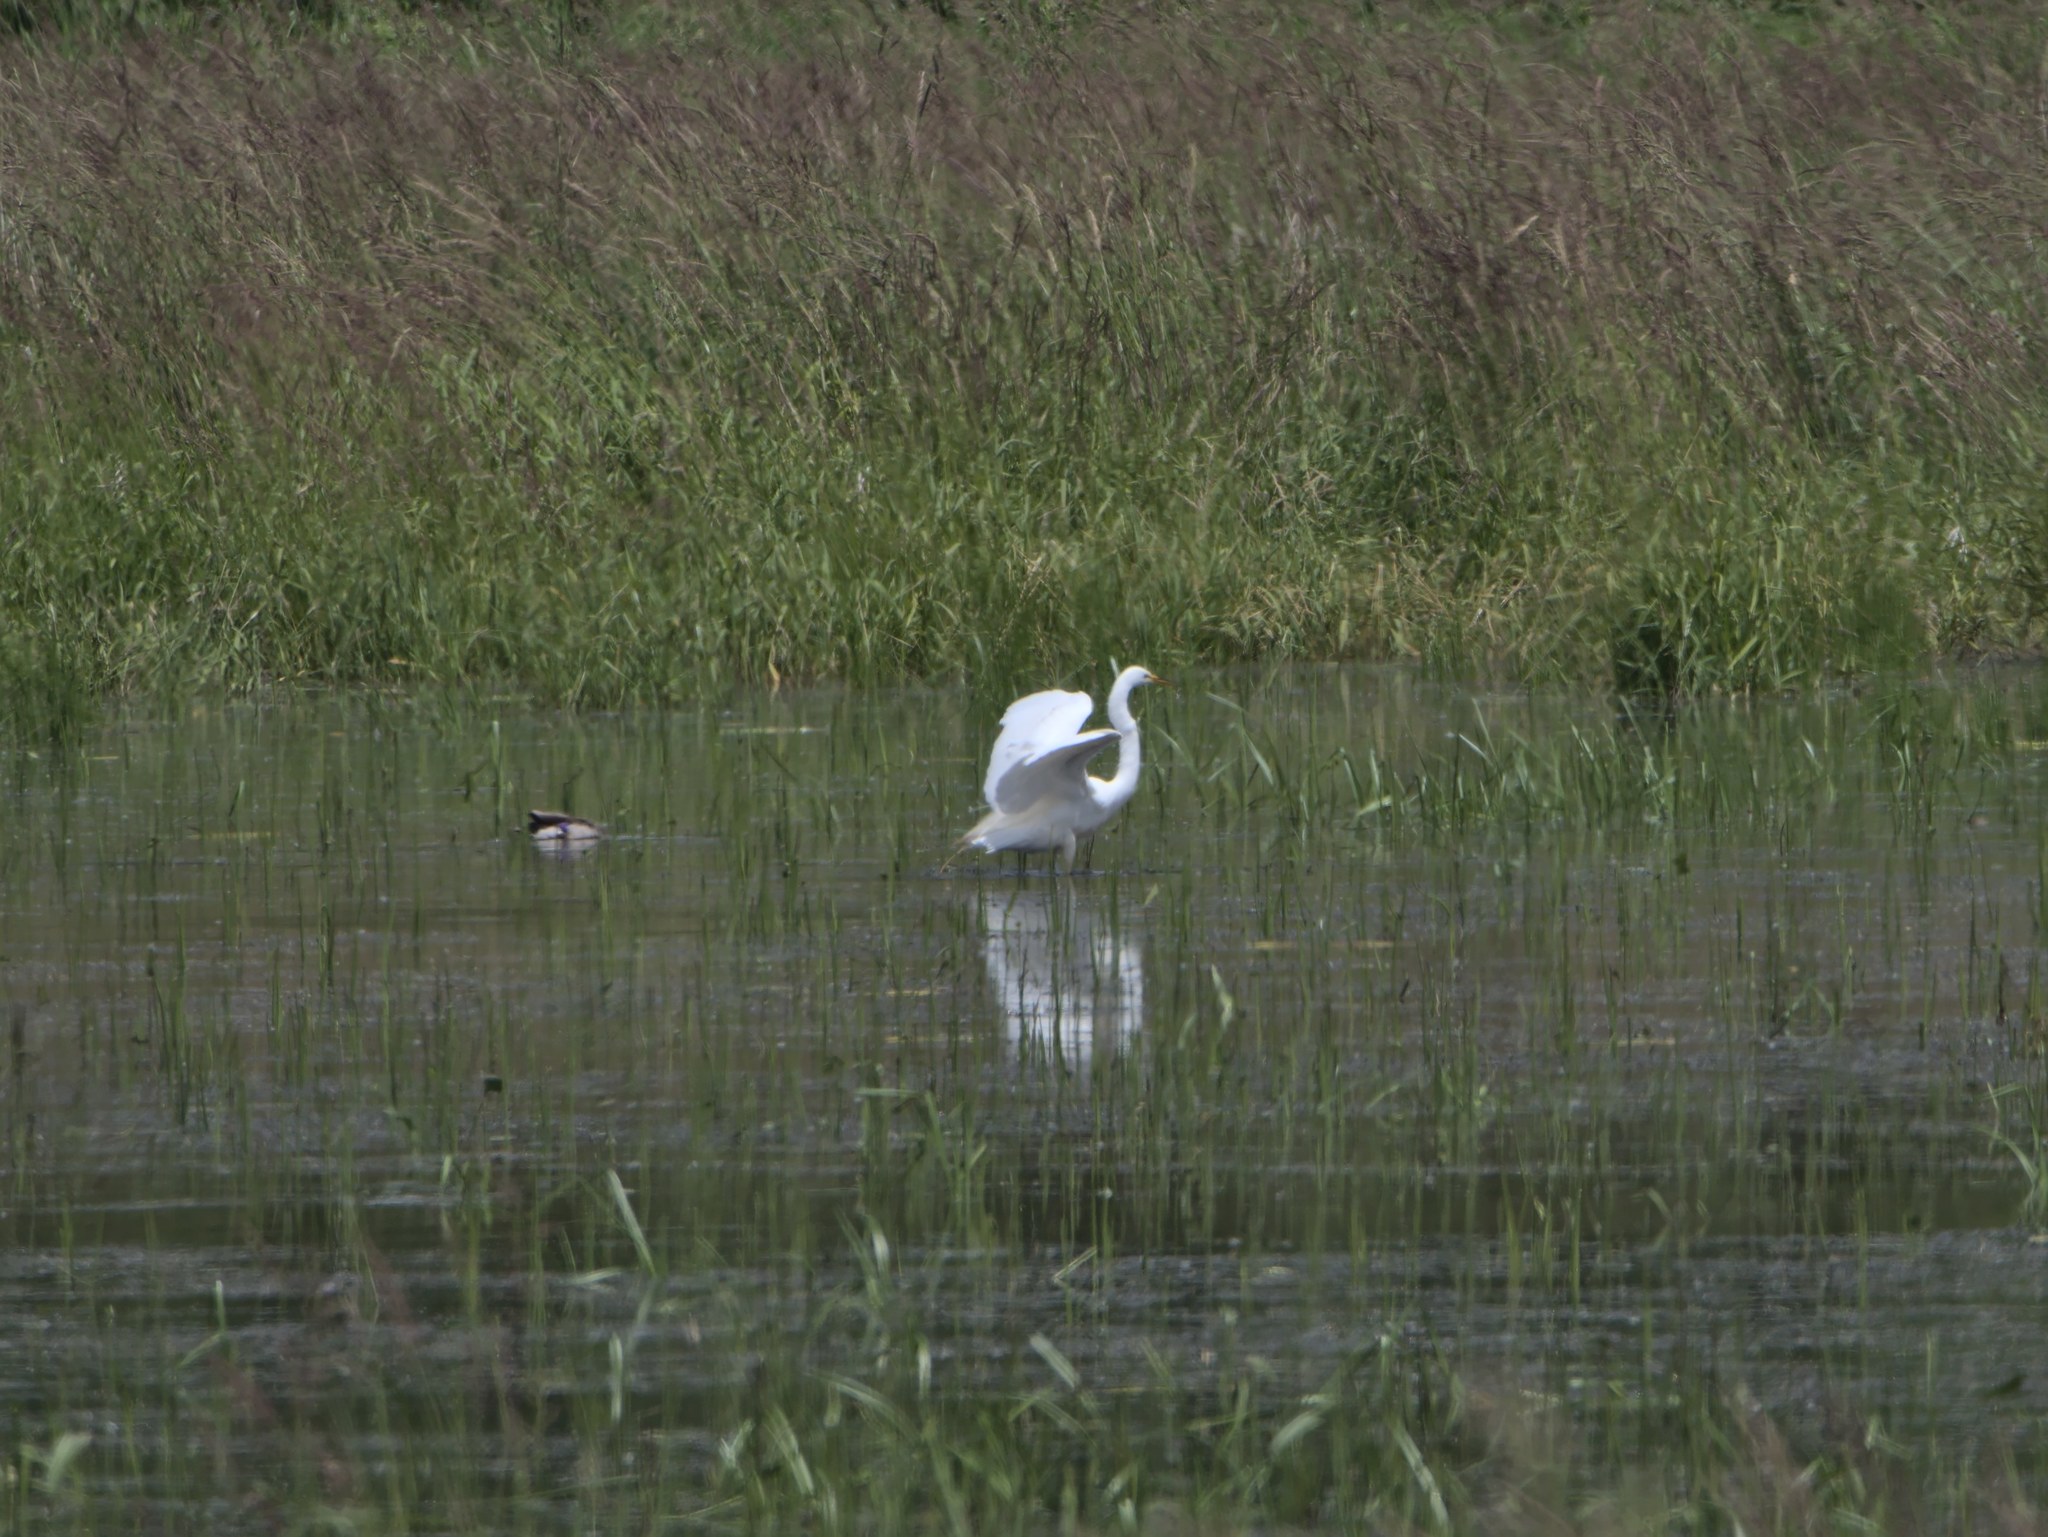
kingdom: Animalia
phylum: Chordata
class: Aves
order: Pelecaniformes
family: Ardeidae
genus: Ardea
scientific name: Ardea alba
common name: Great egret
